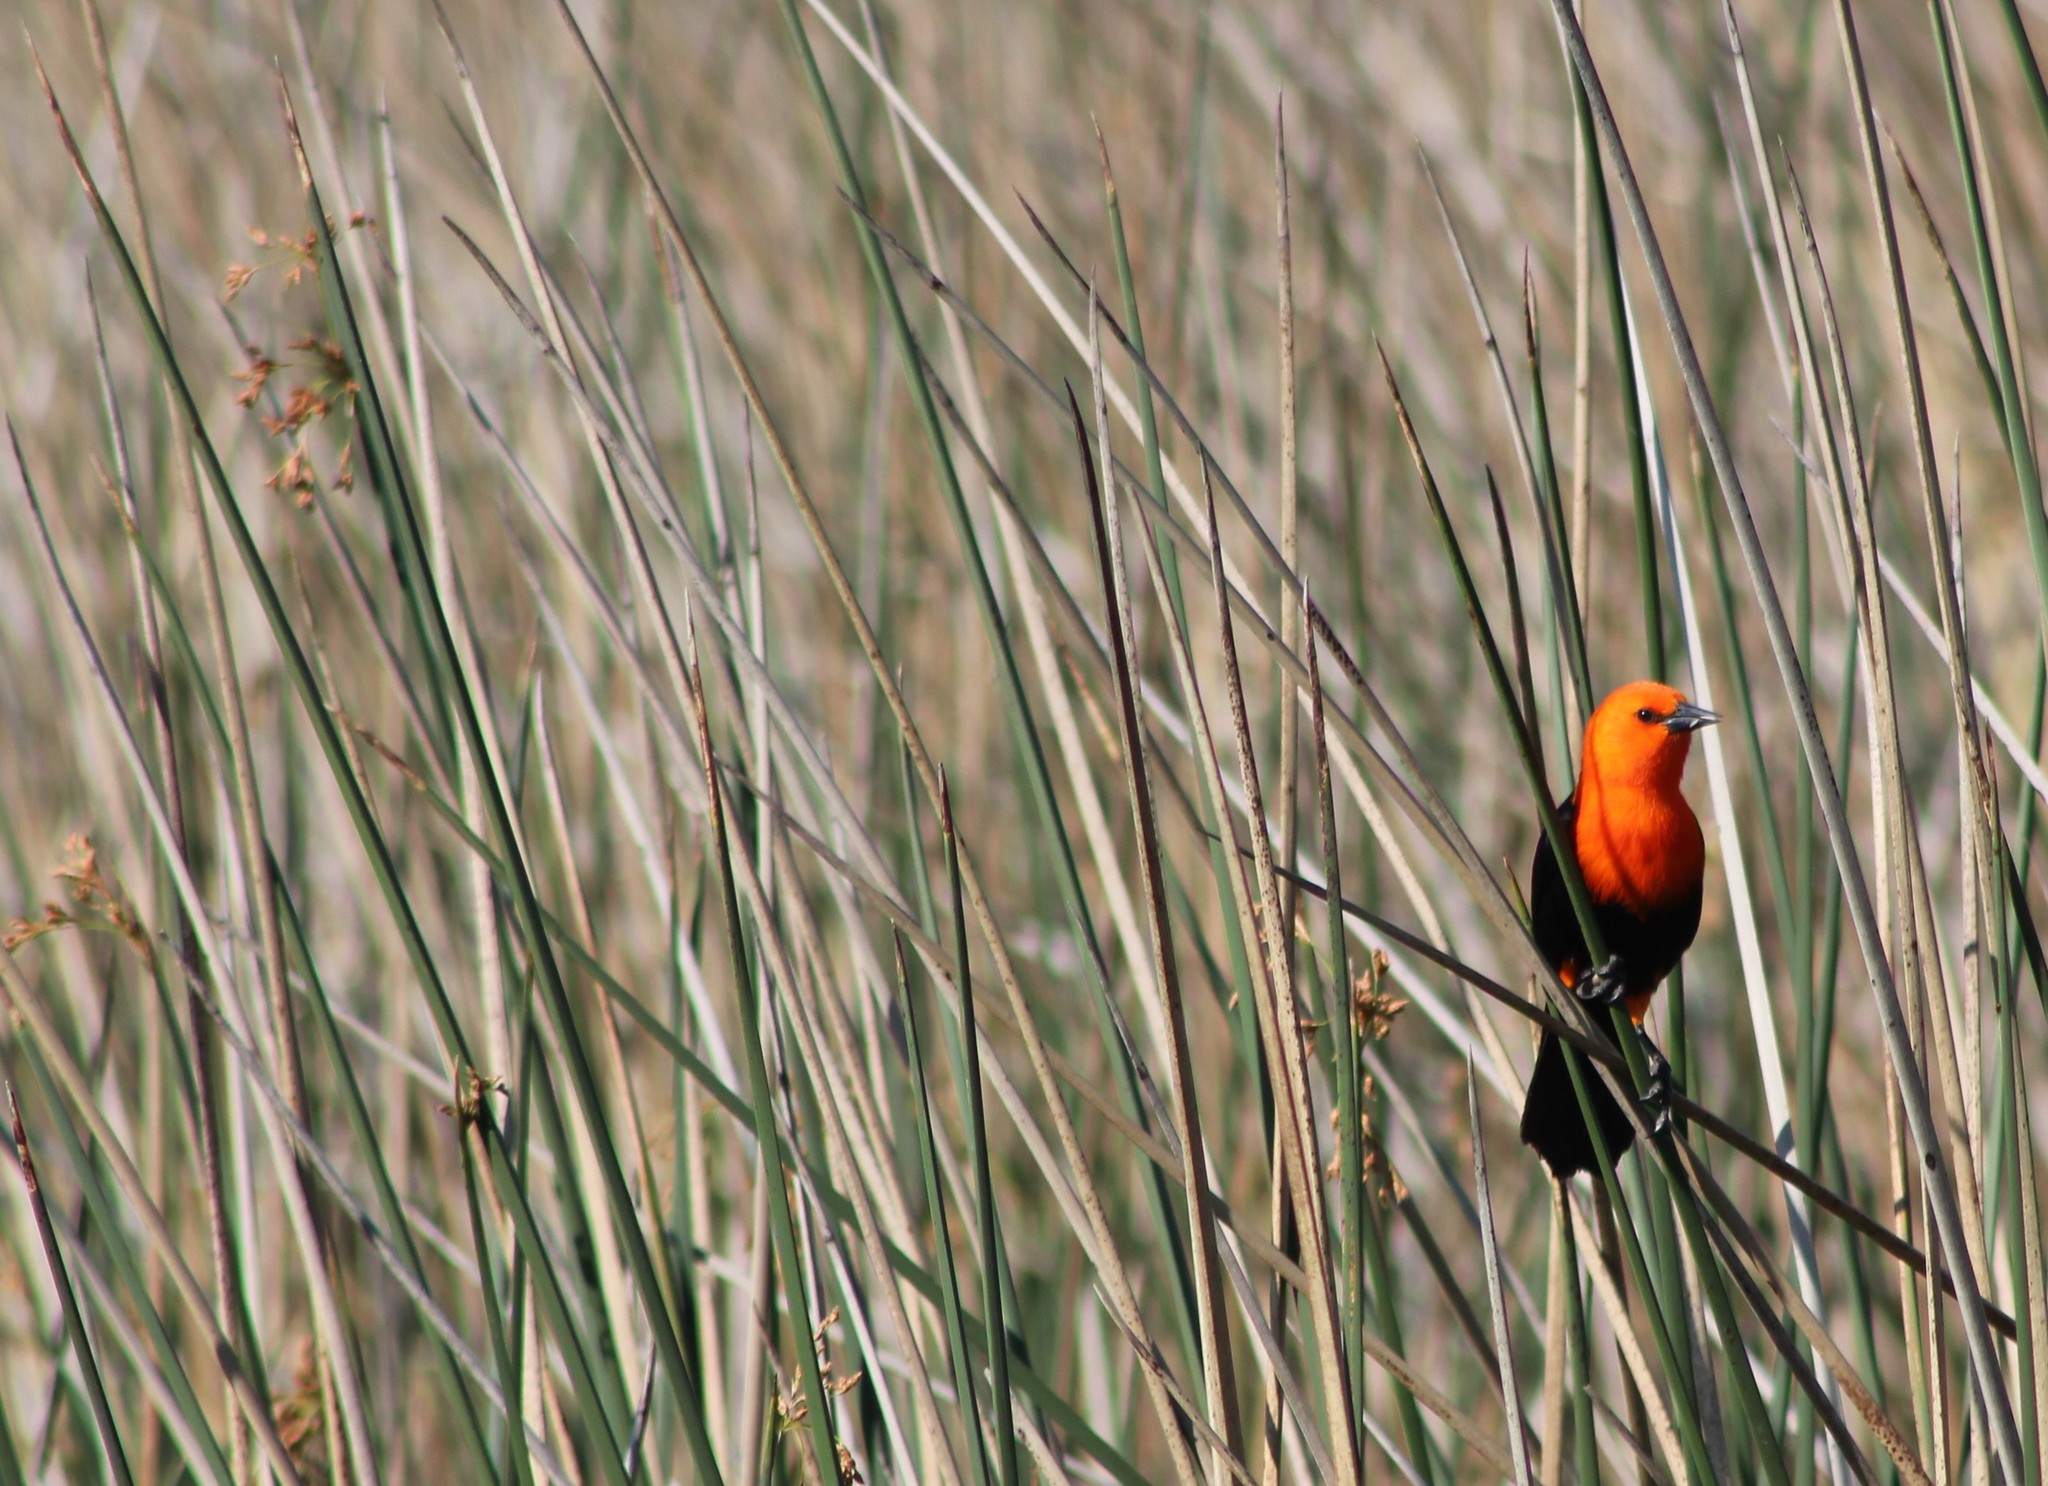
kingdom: Animalia
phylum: Chordata
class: Aves
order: Passeriformes
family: Icteridae
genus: Amblyramphus
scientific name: Amblyramphus holosericeus
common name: Scarlet-headed blackbird
